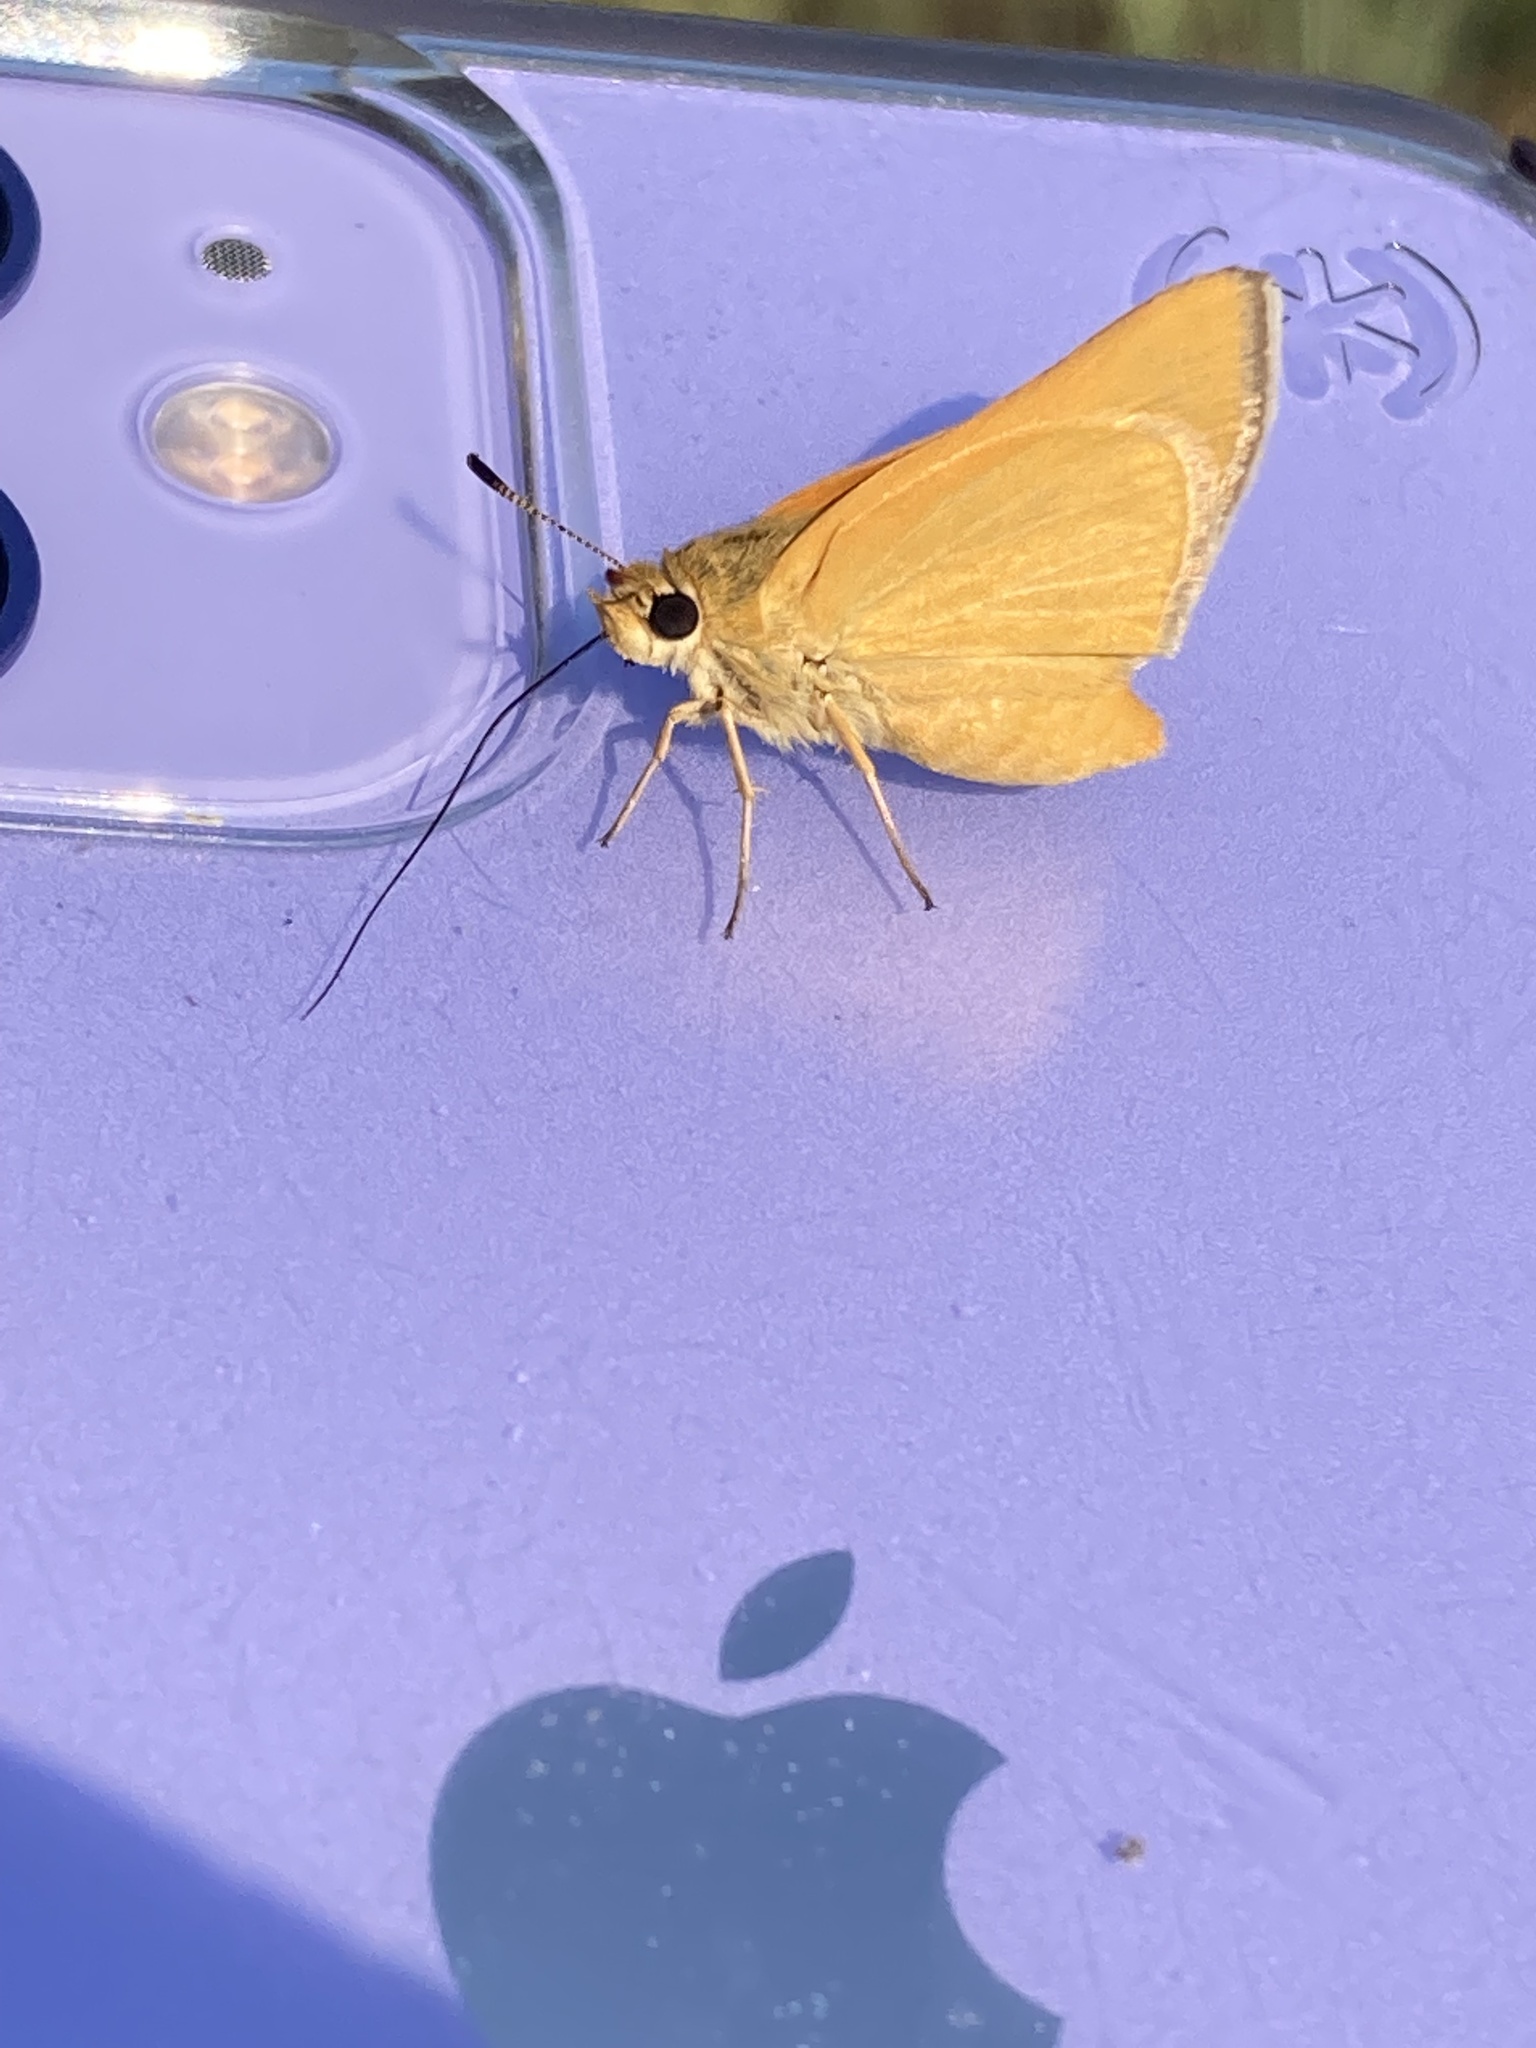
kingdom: Animalia
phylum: Arthropoda
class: Insecta
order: Lepidoptera
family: Hesperiidae
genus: Atrytone
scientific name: Atrytone arogos
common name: Arogos skipper
